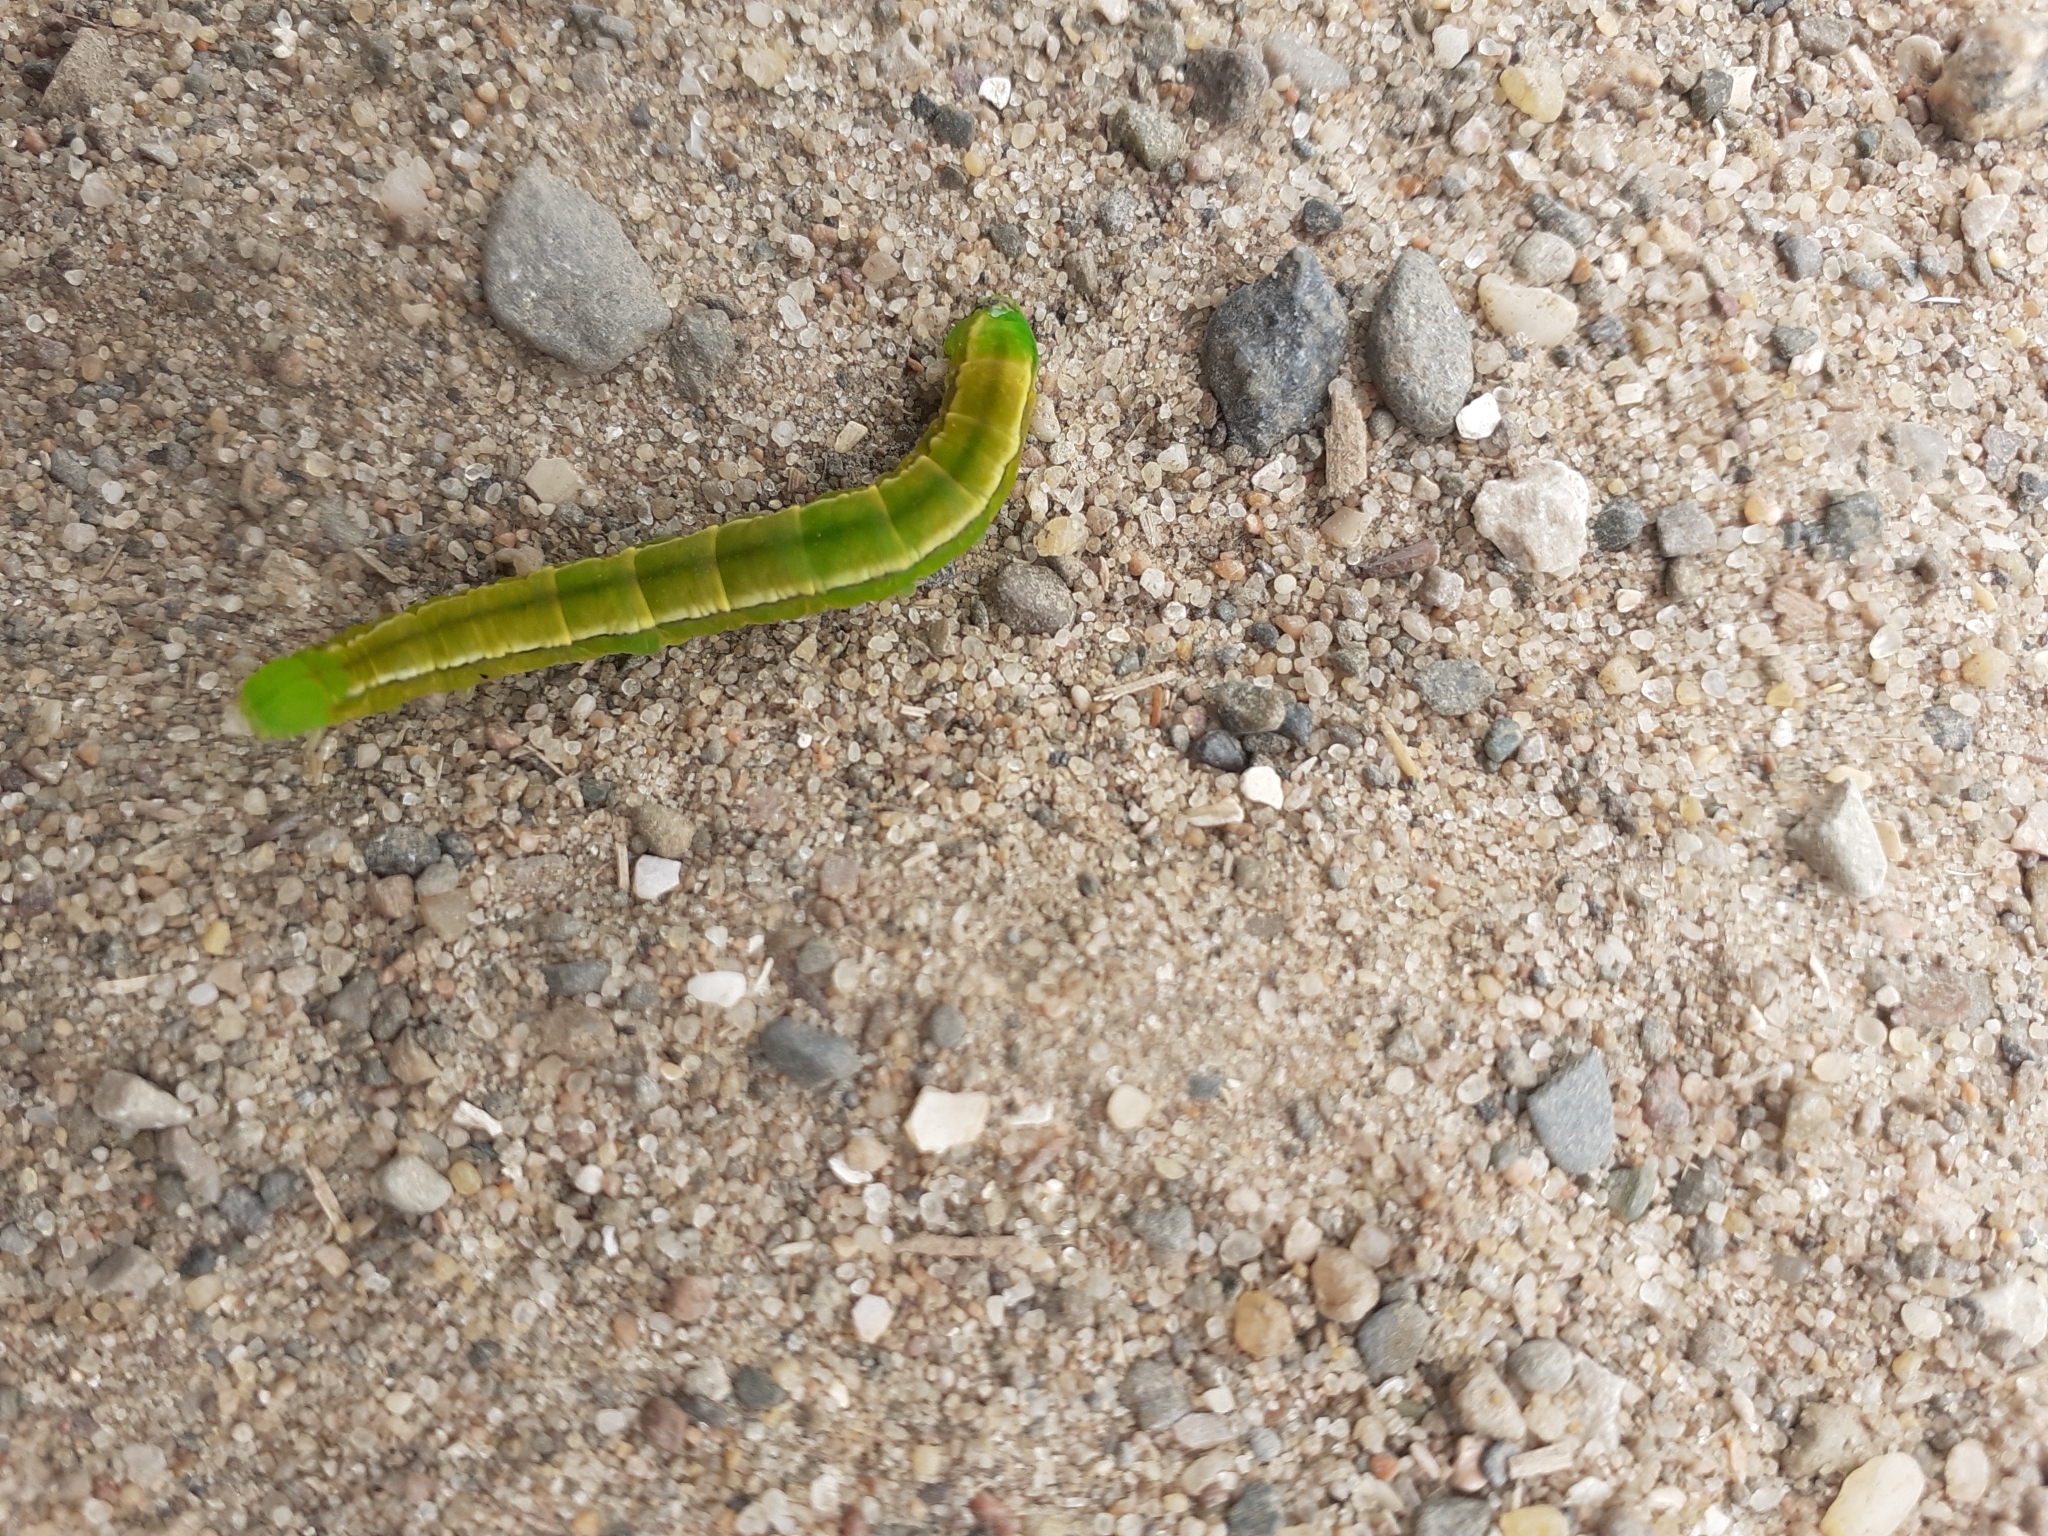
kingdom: Animalia
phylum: Arthropoda
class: Insecta
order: Lepidoptera
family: Erebidae
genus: Scoliopteryx
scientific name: Scoliopteryx libatrix
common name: Herald
